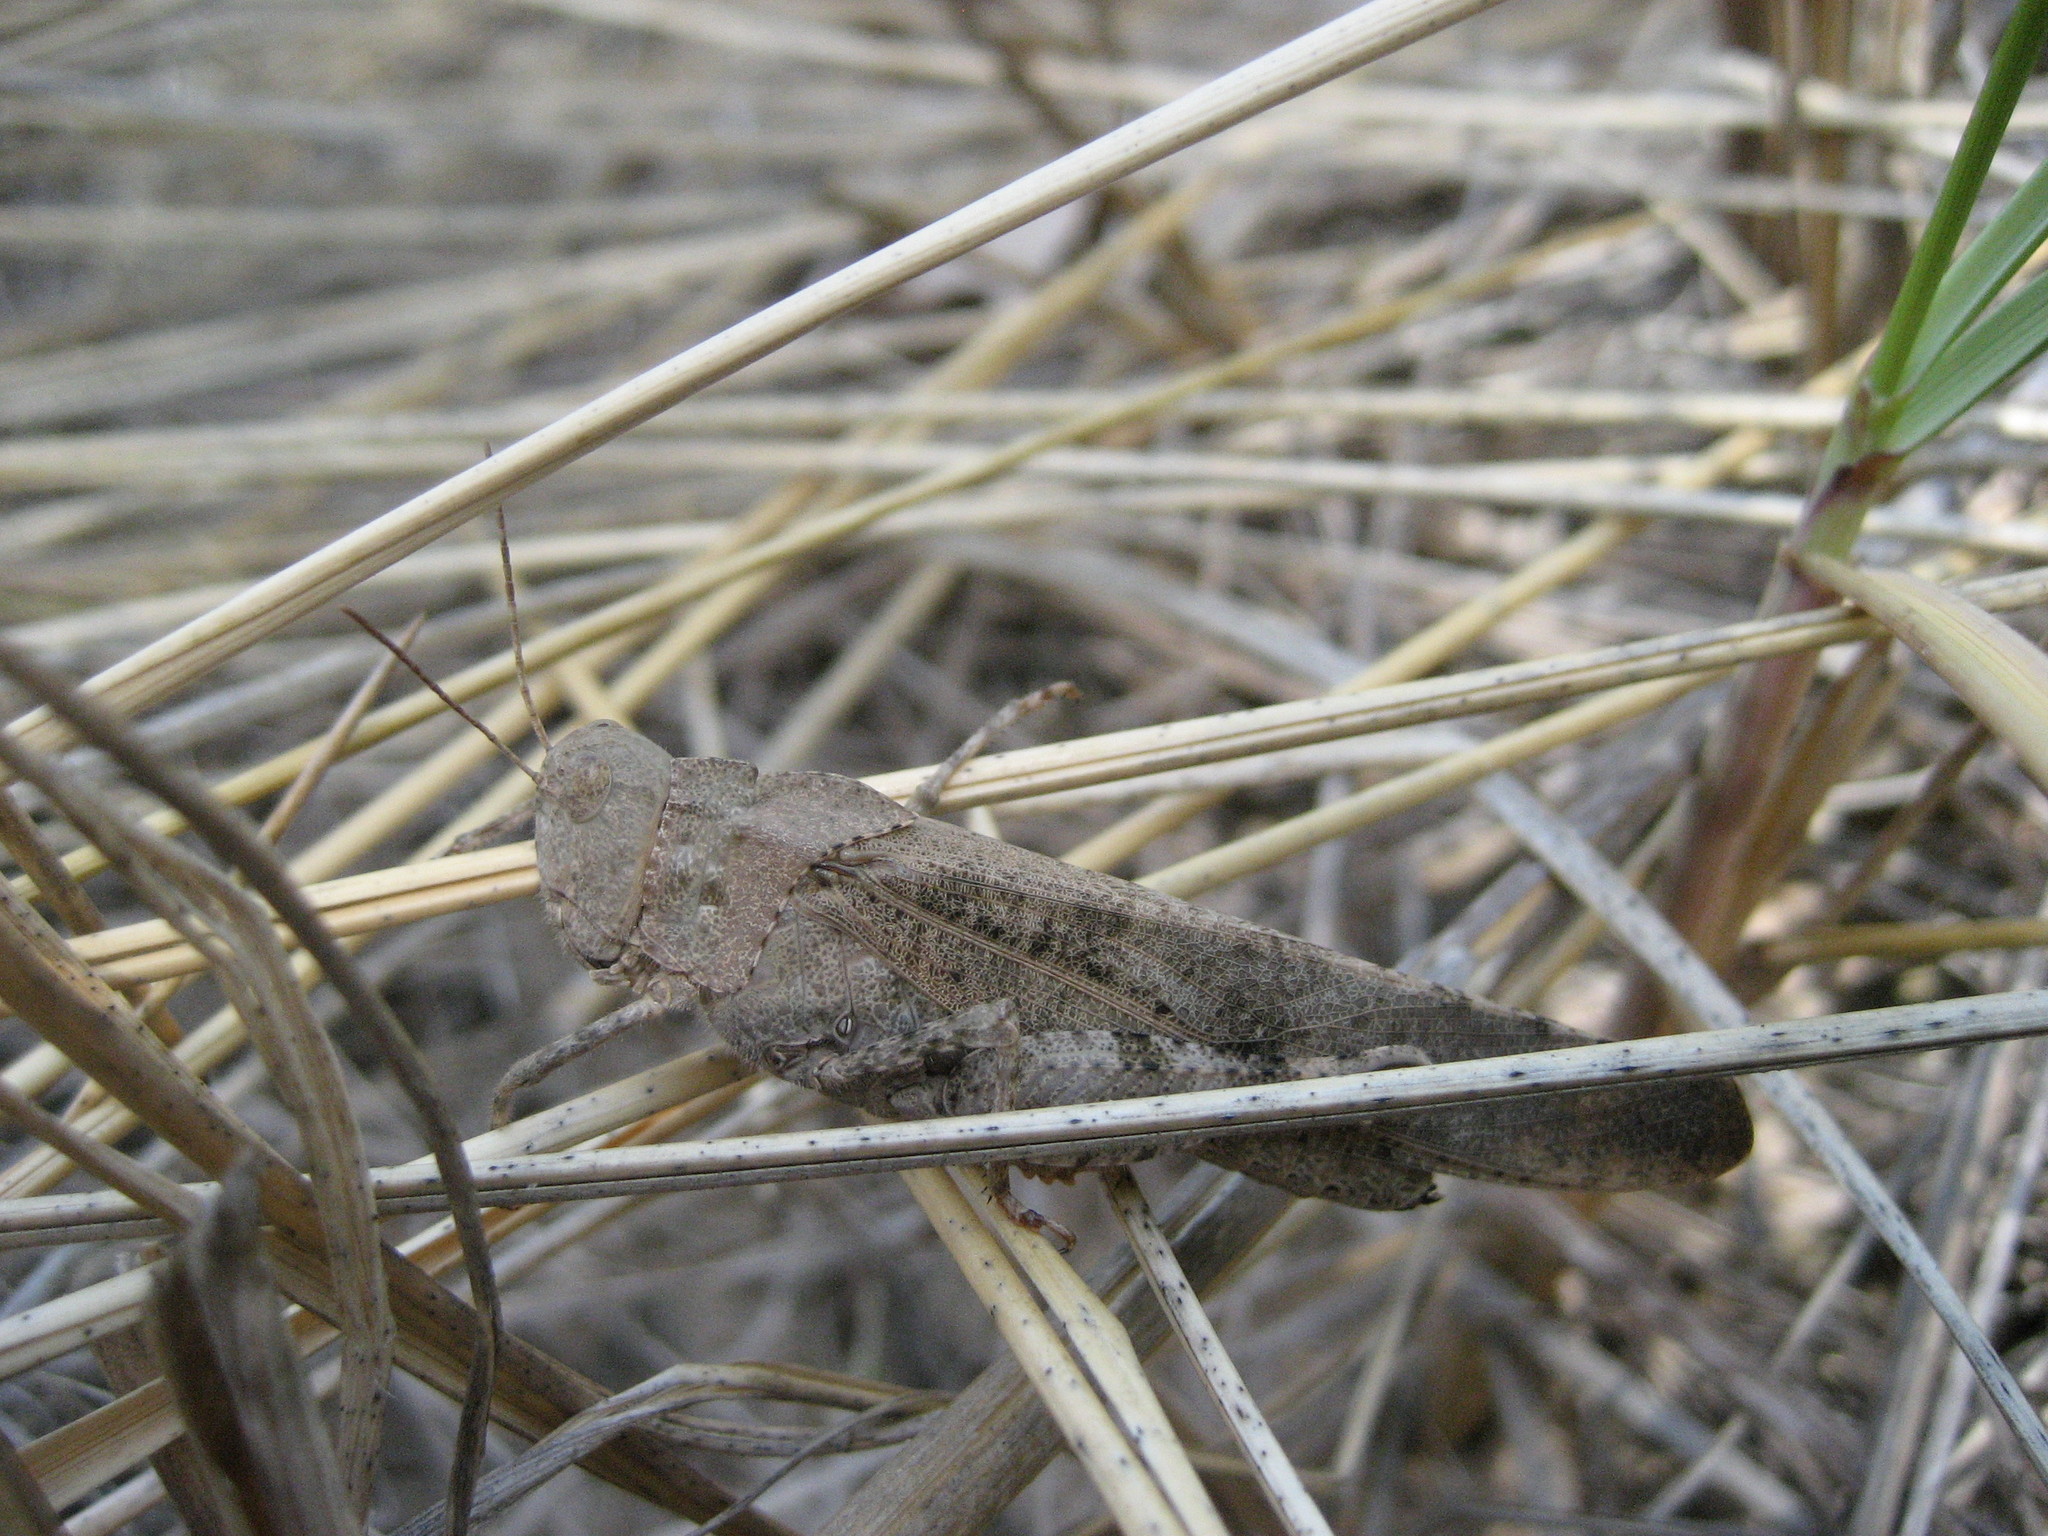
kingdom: Animalia
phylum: Arthropoda
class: Insecta
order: Orthoptera
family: Acrididae
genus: Dissosteira
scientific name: Dissosteira carolina
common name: Carolina grasshopper
